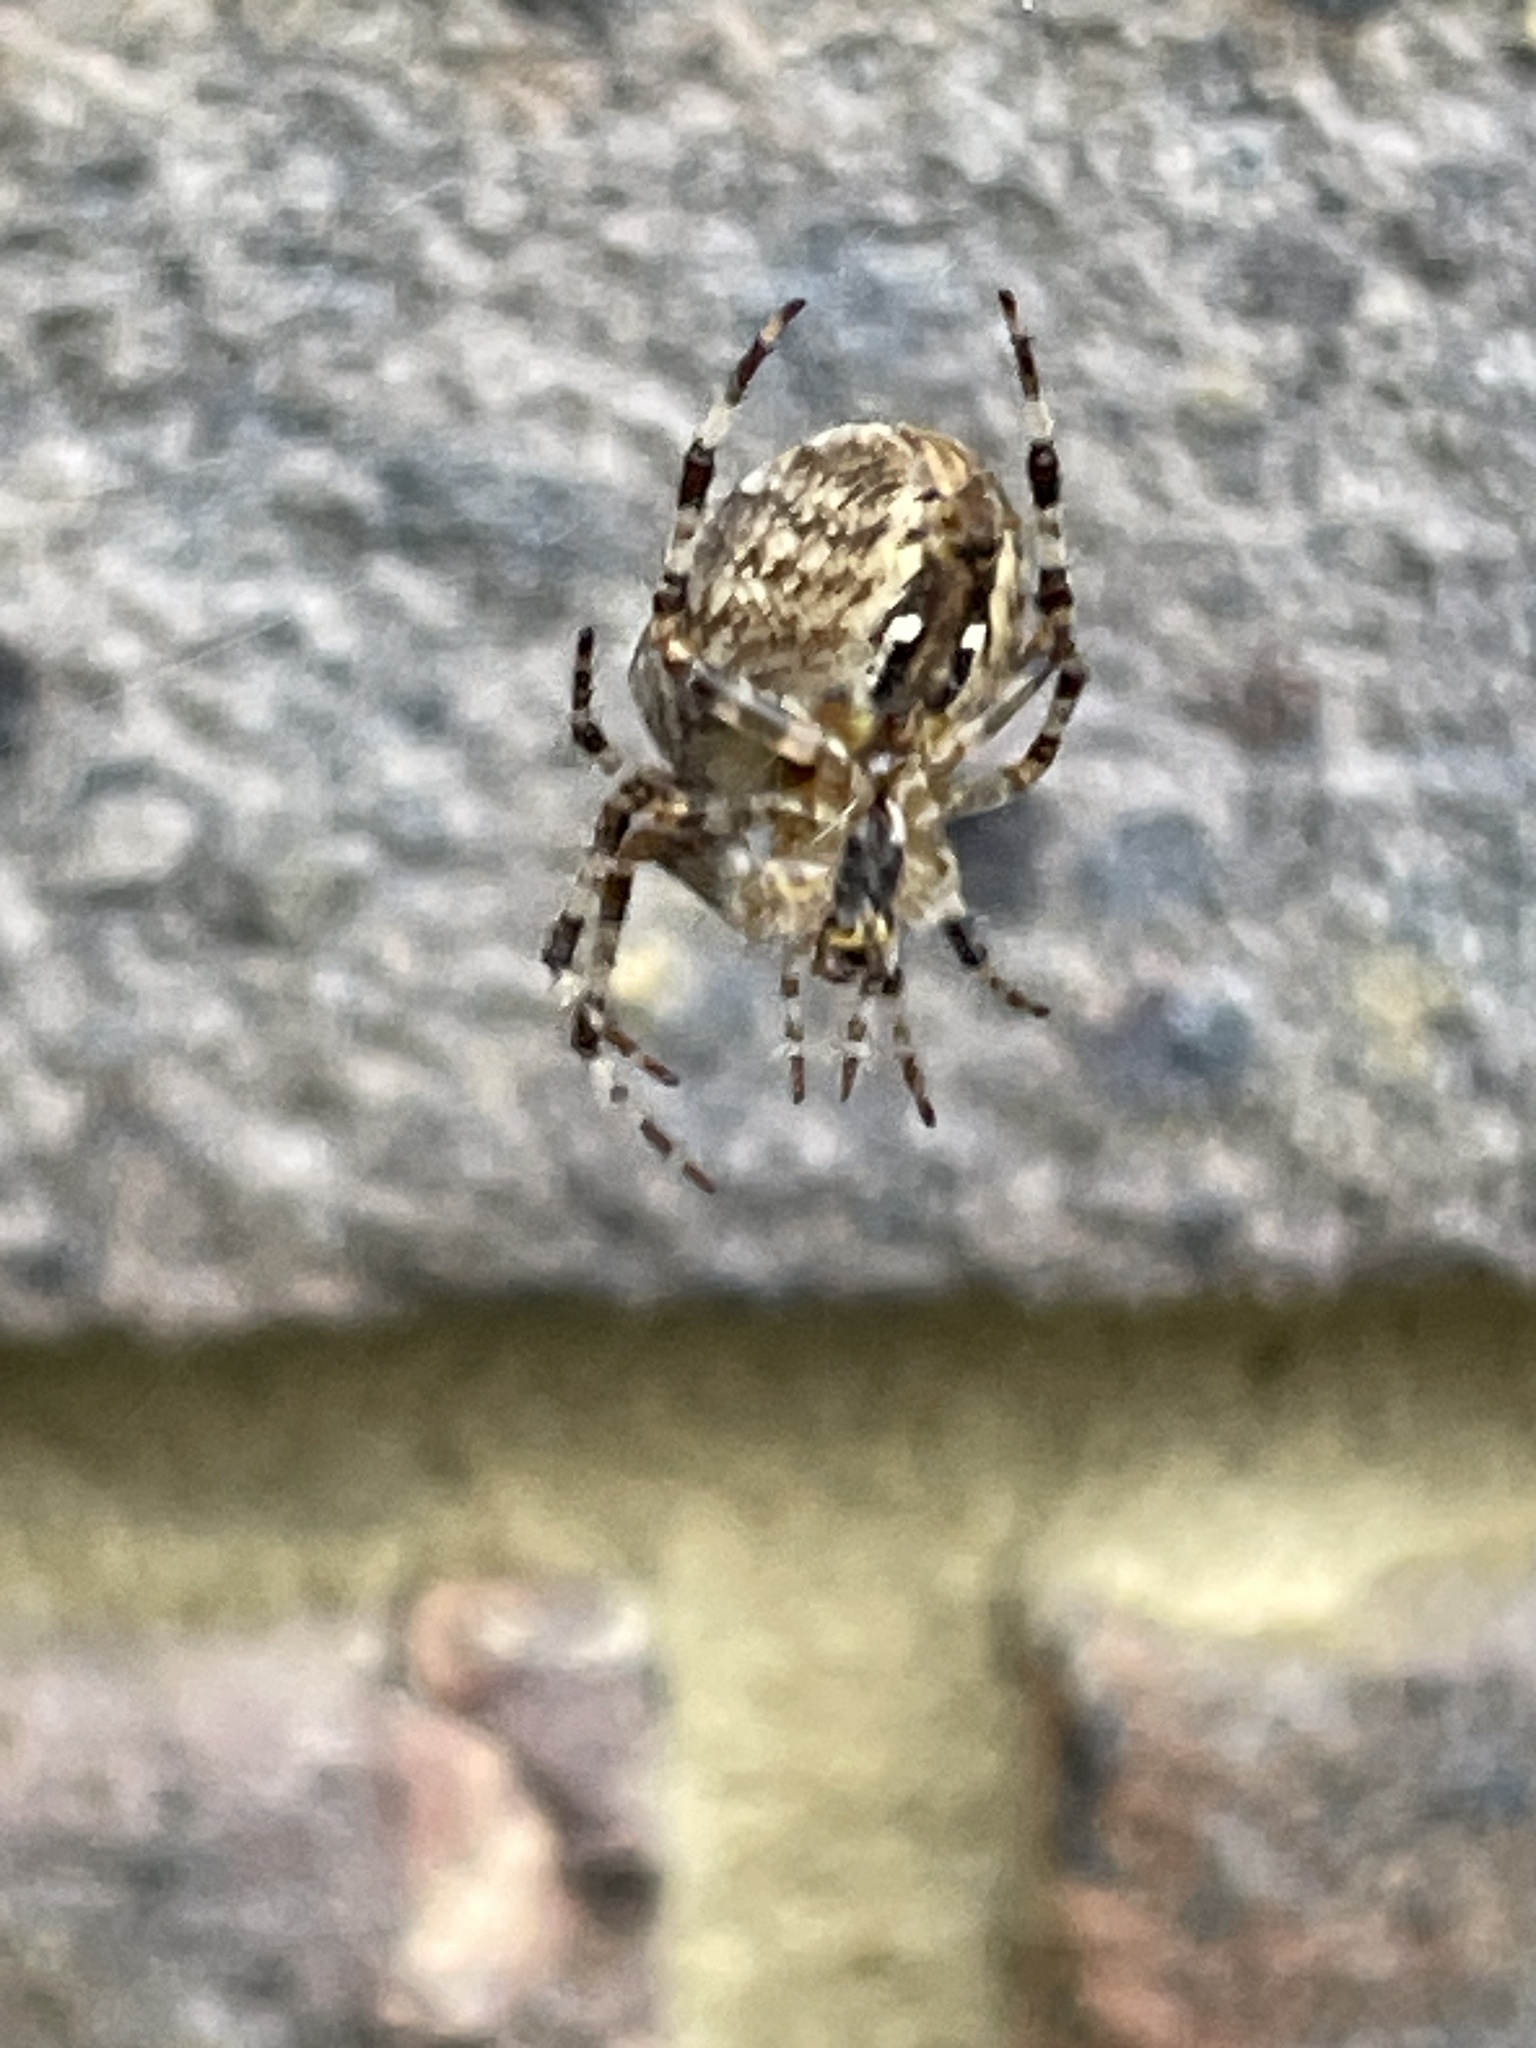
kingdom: Animalia
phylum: Arthropoda
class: Arachnida
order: Araneae
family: Araneidae
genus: Araneus
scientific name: Araneus diadematus
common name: Cross orbweaver
